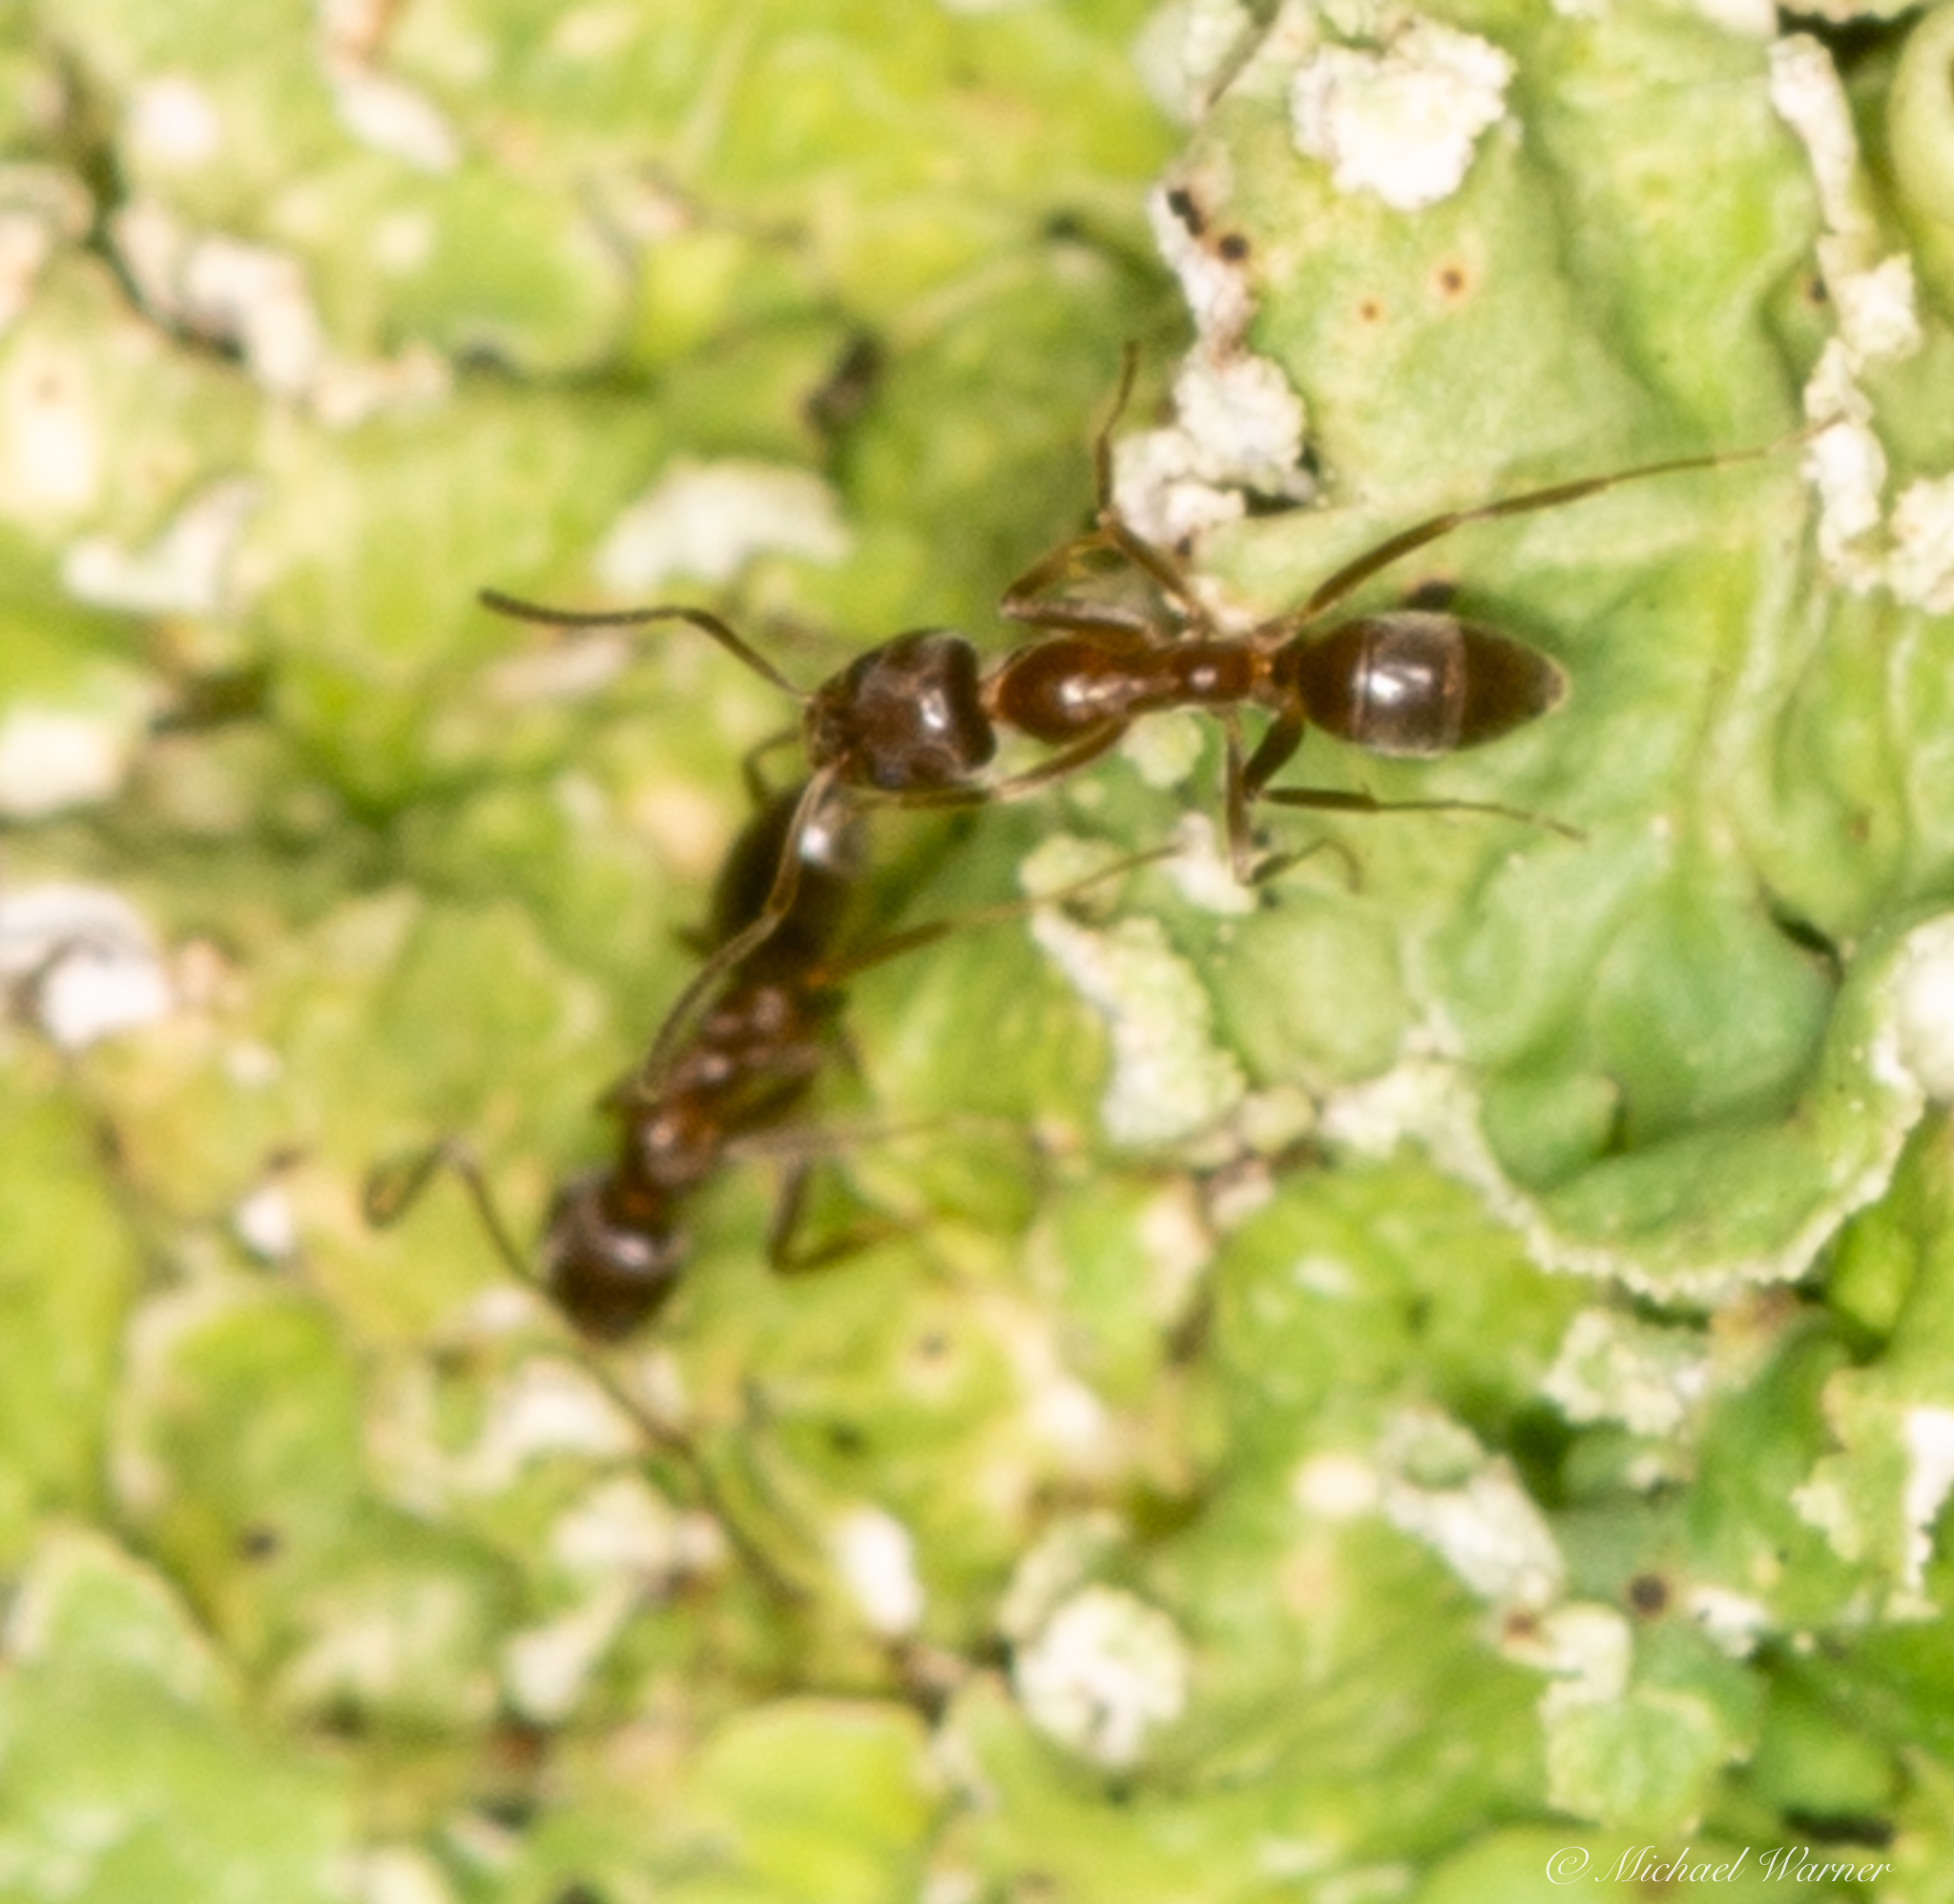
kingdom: Animalia
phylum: Arthropoda
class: Insecta
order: Hymenoptera
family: Formicidae
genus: Linepithema
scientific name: Linepithema humile
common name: Argentine ant
